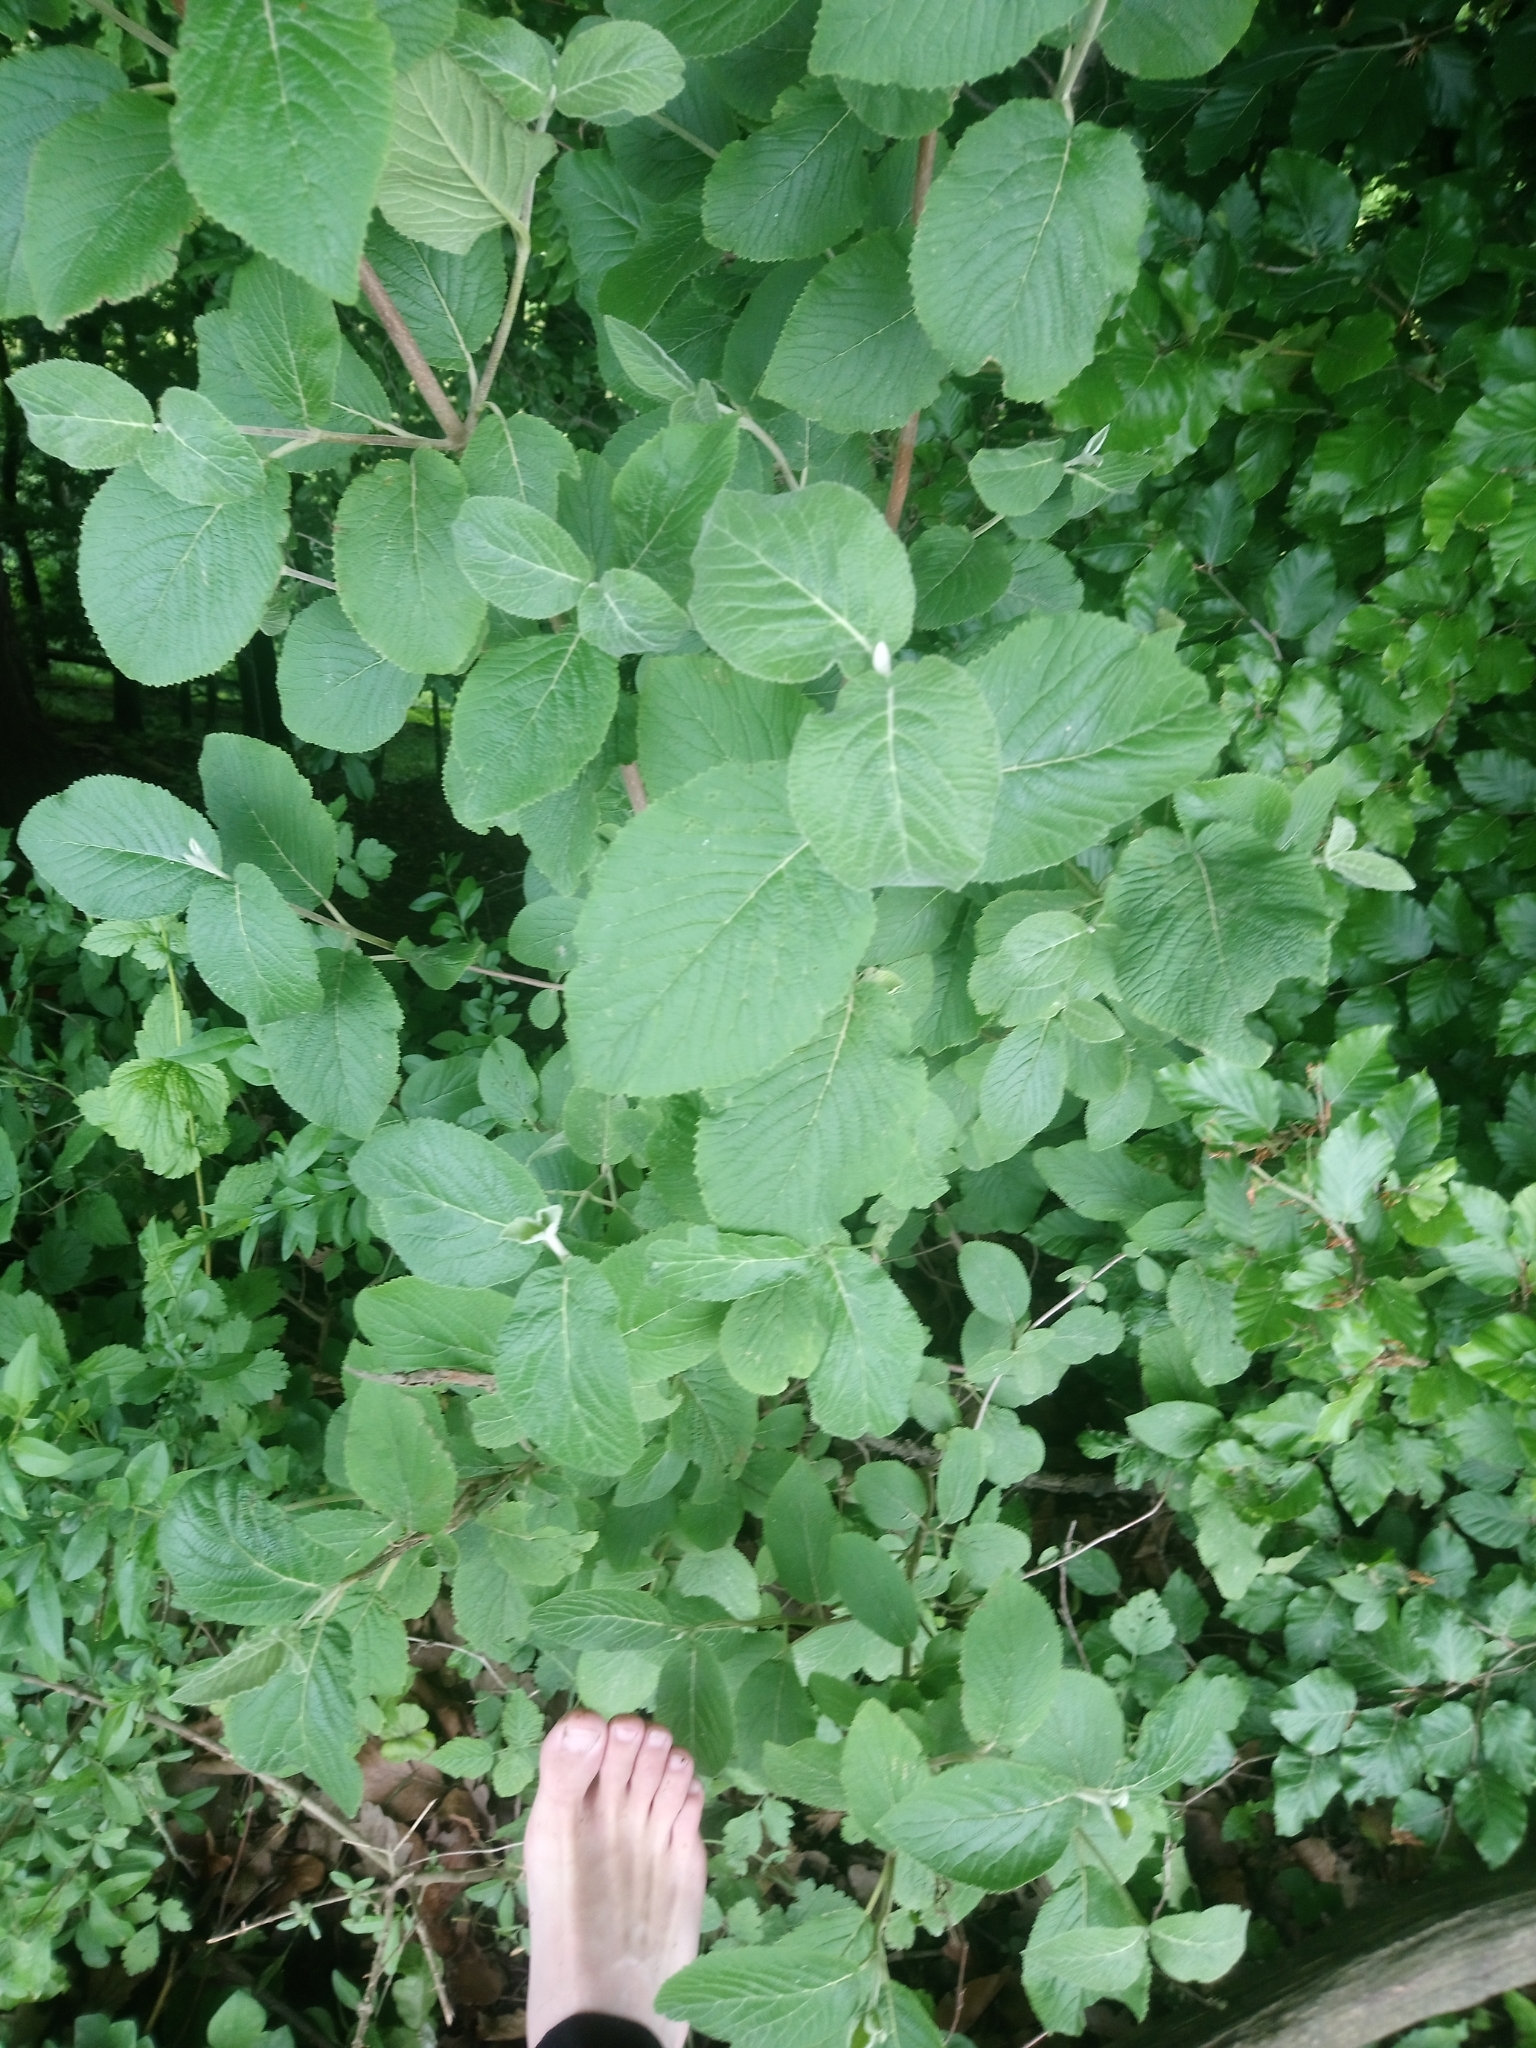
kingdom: Plantae
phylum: Tracheophyta
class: Magnoliopsida
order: Dipsacales
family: Viburnaceae
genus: Viburnum
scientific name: Viburnum lantana
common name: Wayfaring tree
